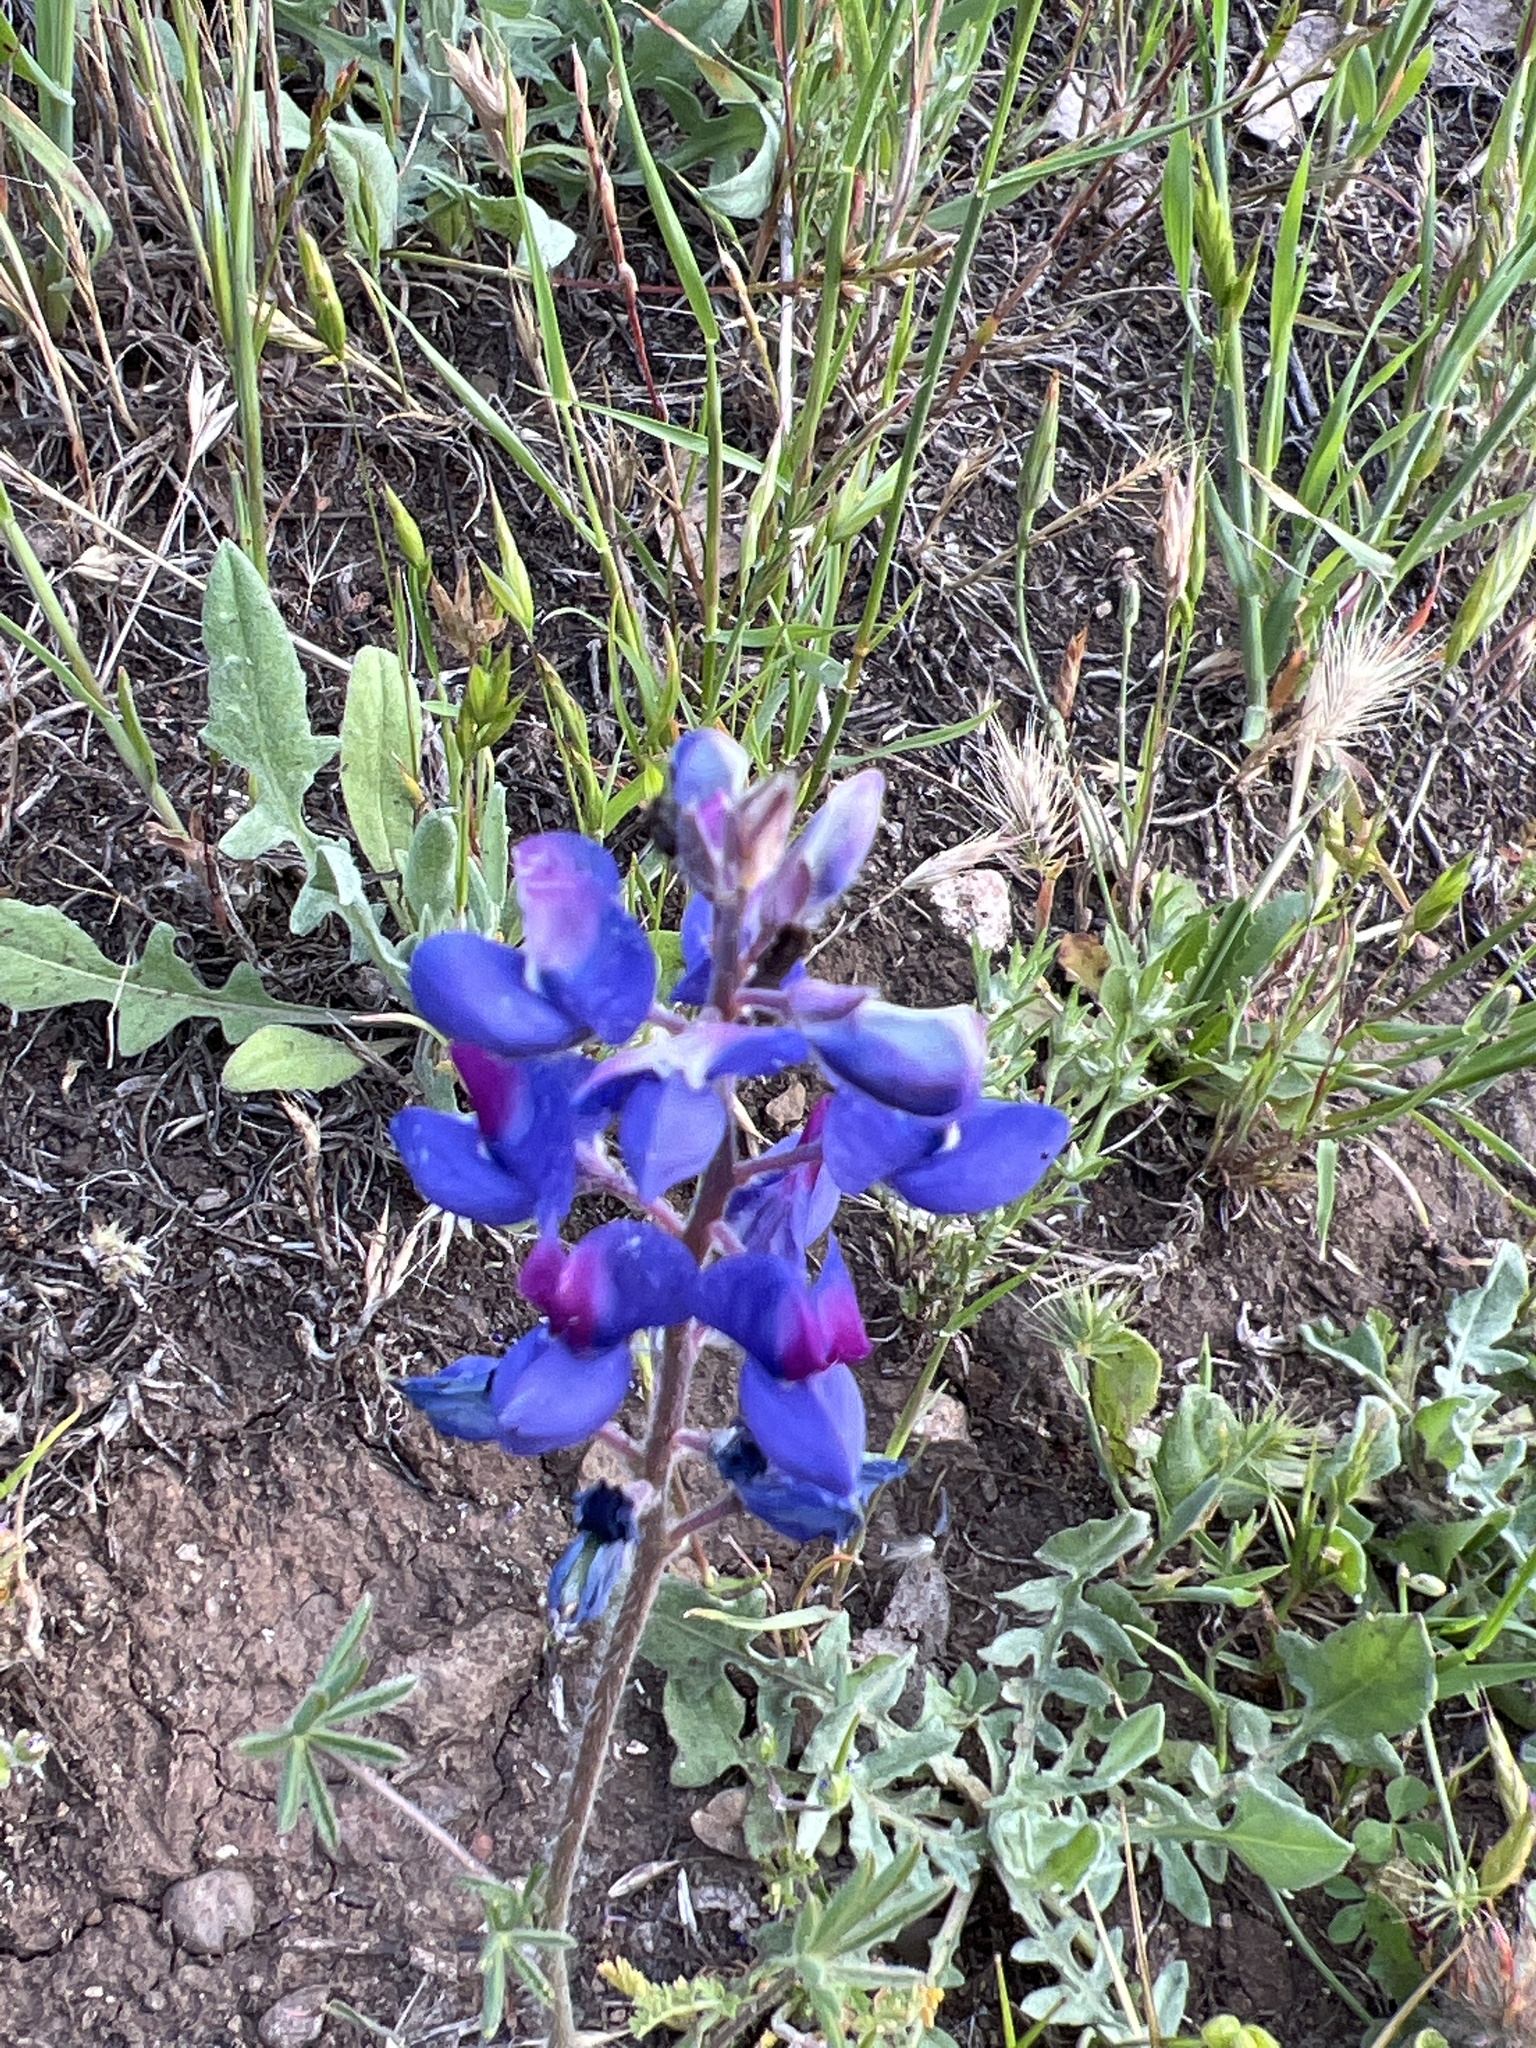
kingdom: Plantae
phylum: Tracheophyta
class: Magnoliopsida
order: Fabales
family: Fabaceae
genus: Lupinus
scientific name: Lupinus nanus
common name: Orean blue lupin
